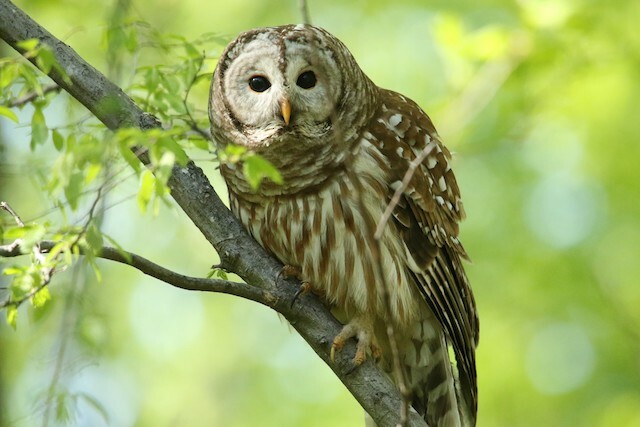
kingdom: Animalia
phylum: Chordata
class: Aves
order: Strigiformes
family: Strigidae
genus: Strix
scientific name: Strix varia
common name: Barred owl
